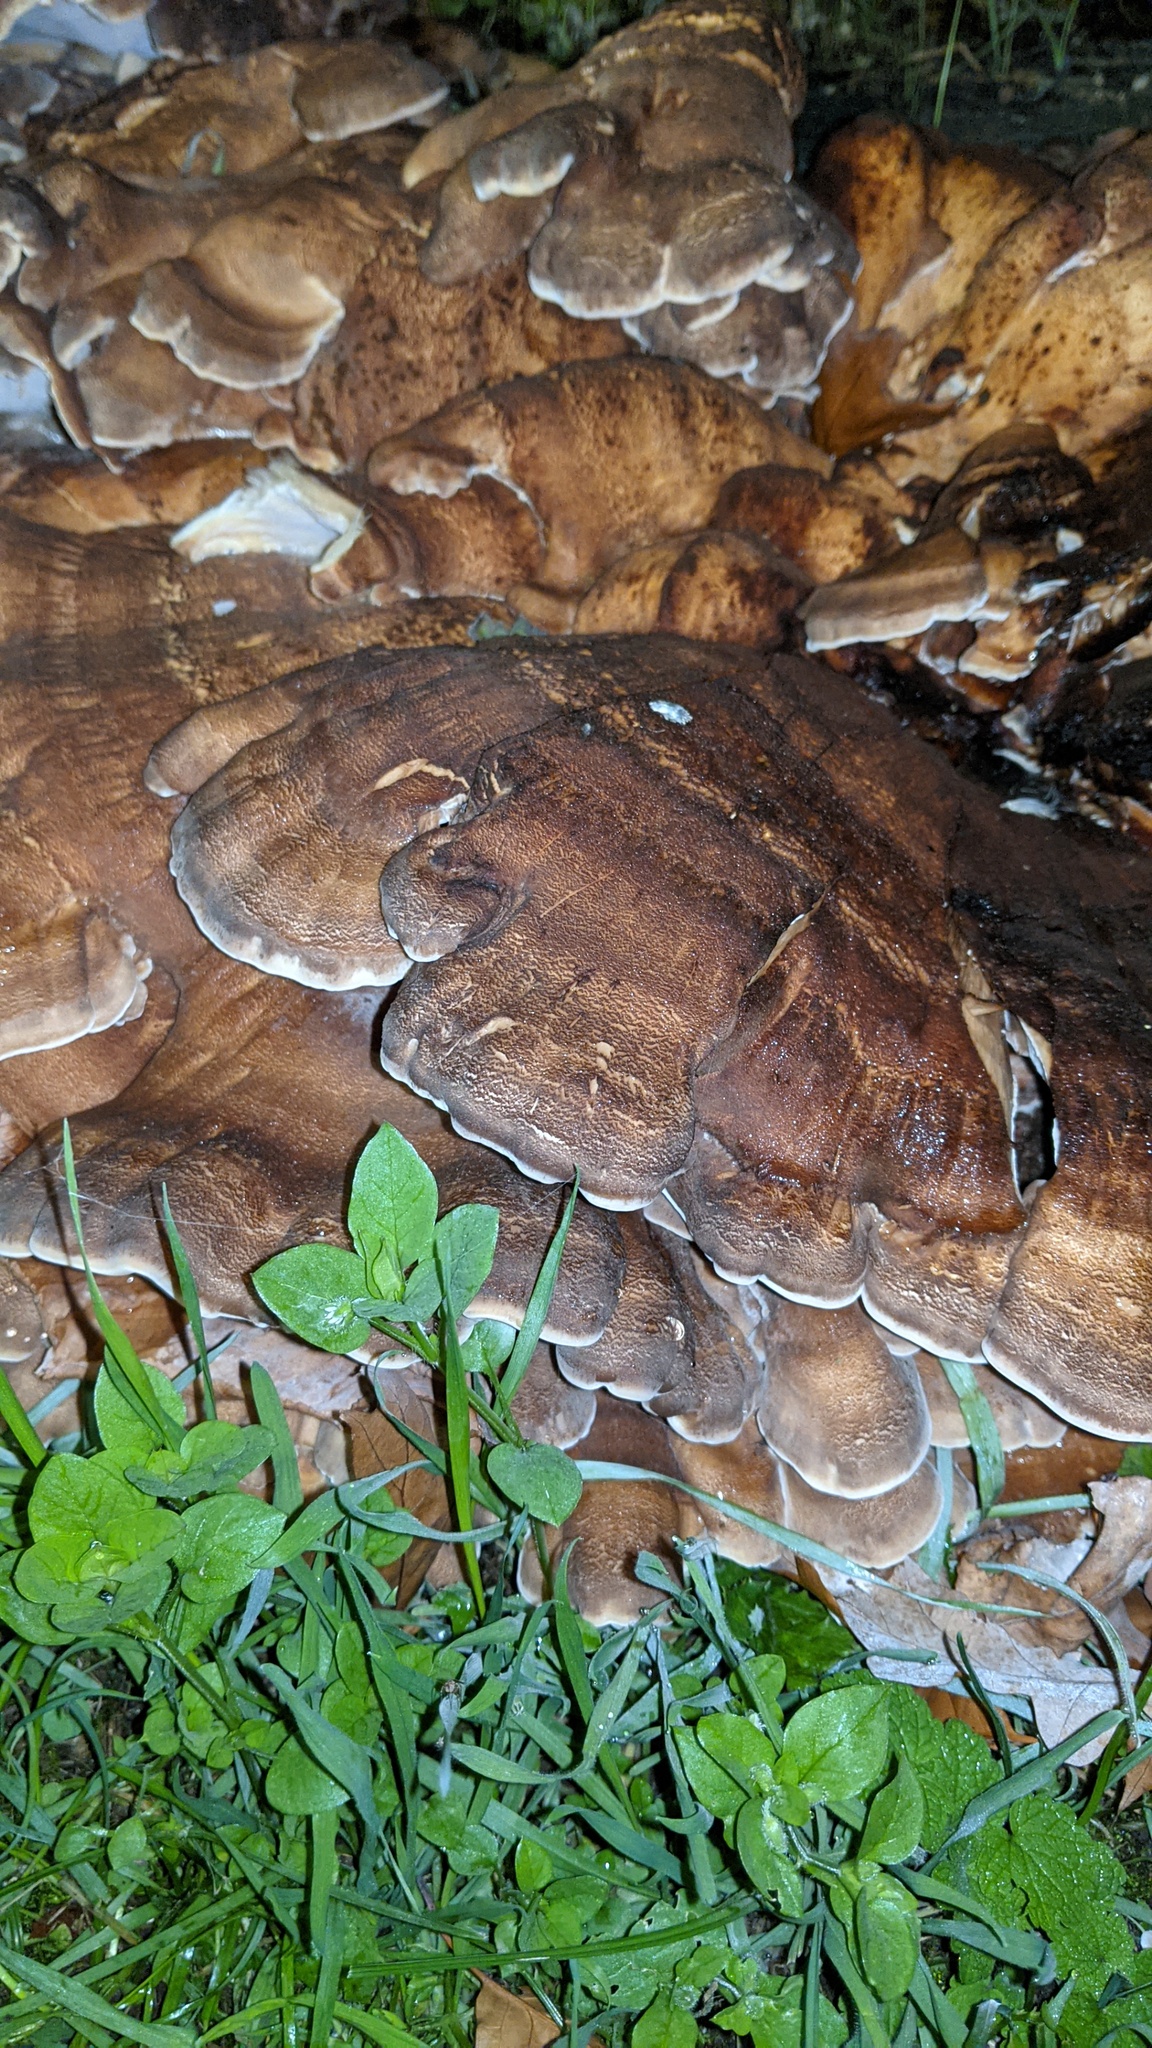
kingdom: Fungi
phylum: Basidiomycota
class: Agaricomycetes
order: Polyporales
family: Meripilaceae
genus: Meripilus
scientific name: Meripilus giganteus
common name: Giant polypore
